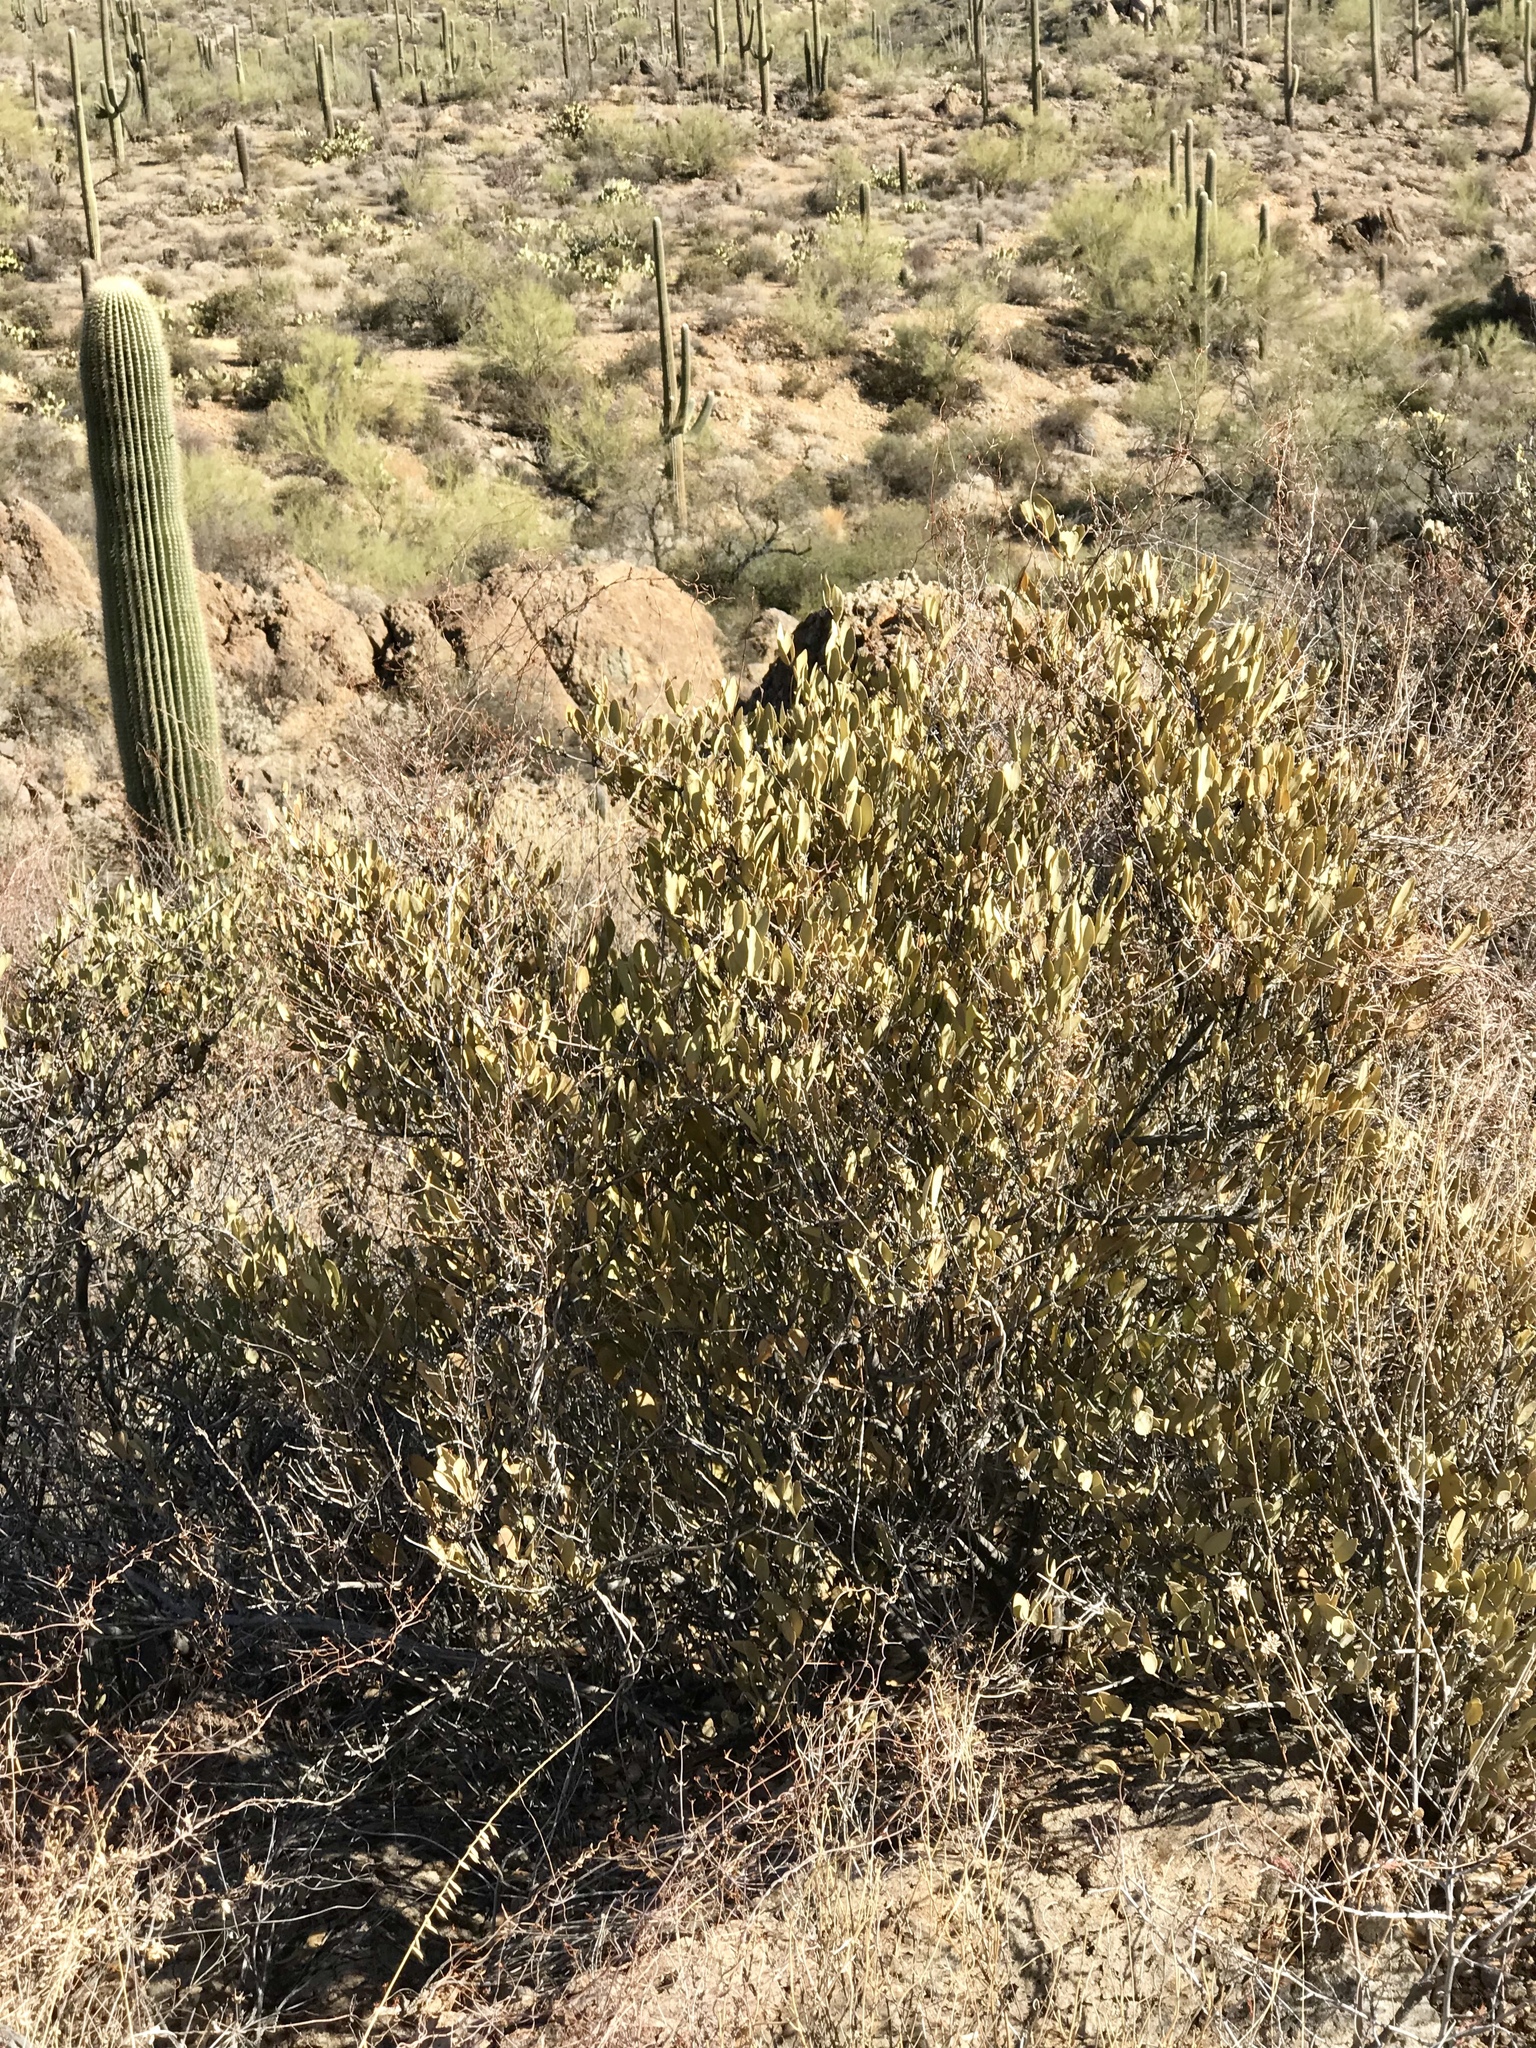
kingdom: Plantae
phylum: Tracheophyta
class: Magnoliopsida
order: Caryophyllales
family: Simmondsiaceae
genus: Simmondsia
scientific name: Simmondsia chinensis
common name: Jojoba
